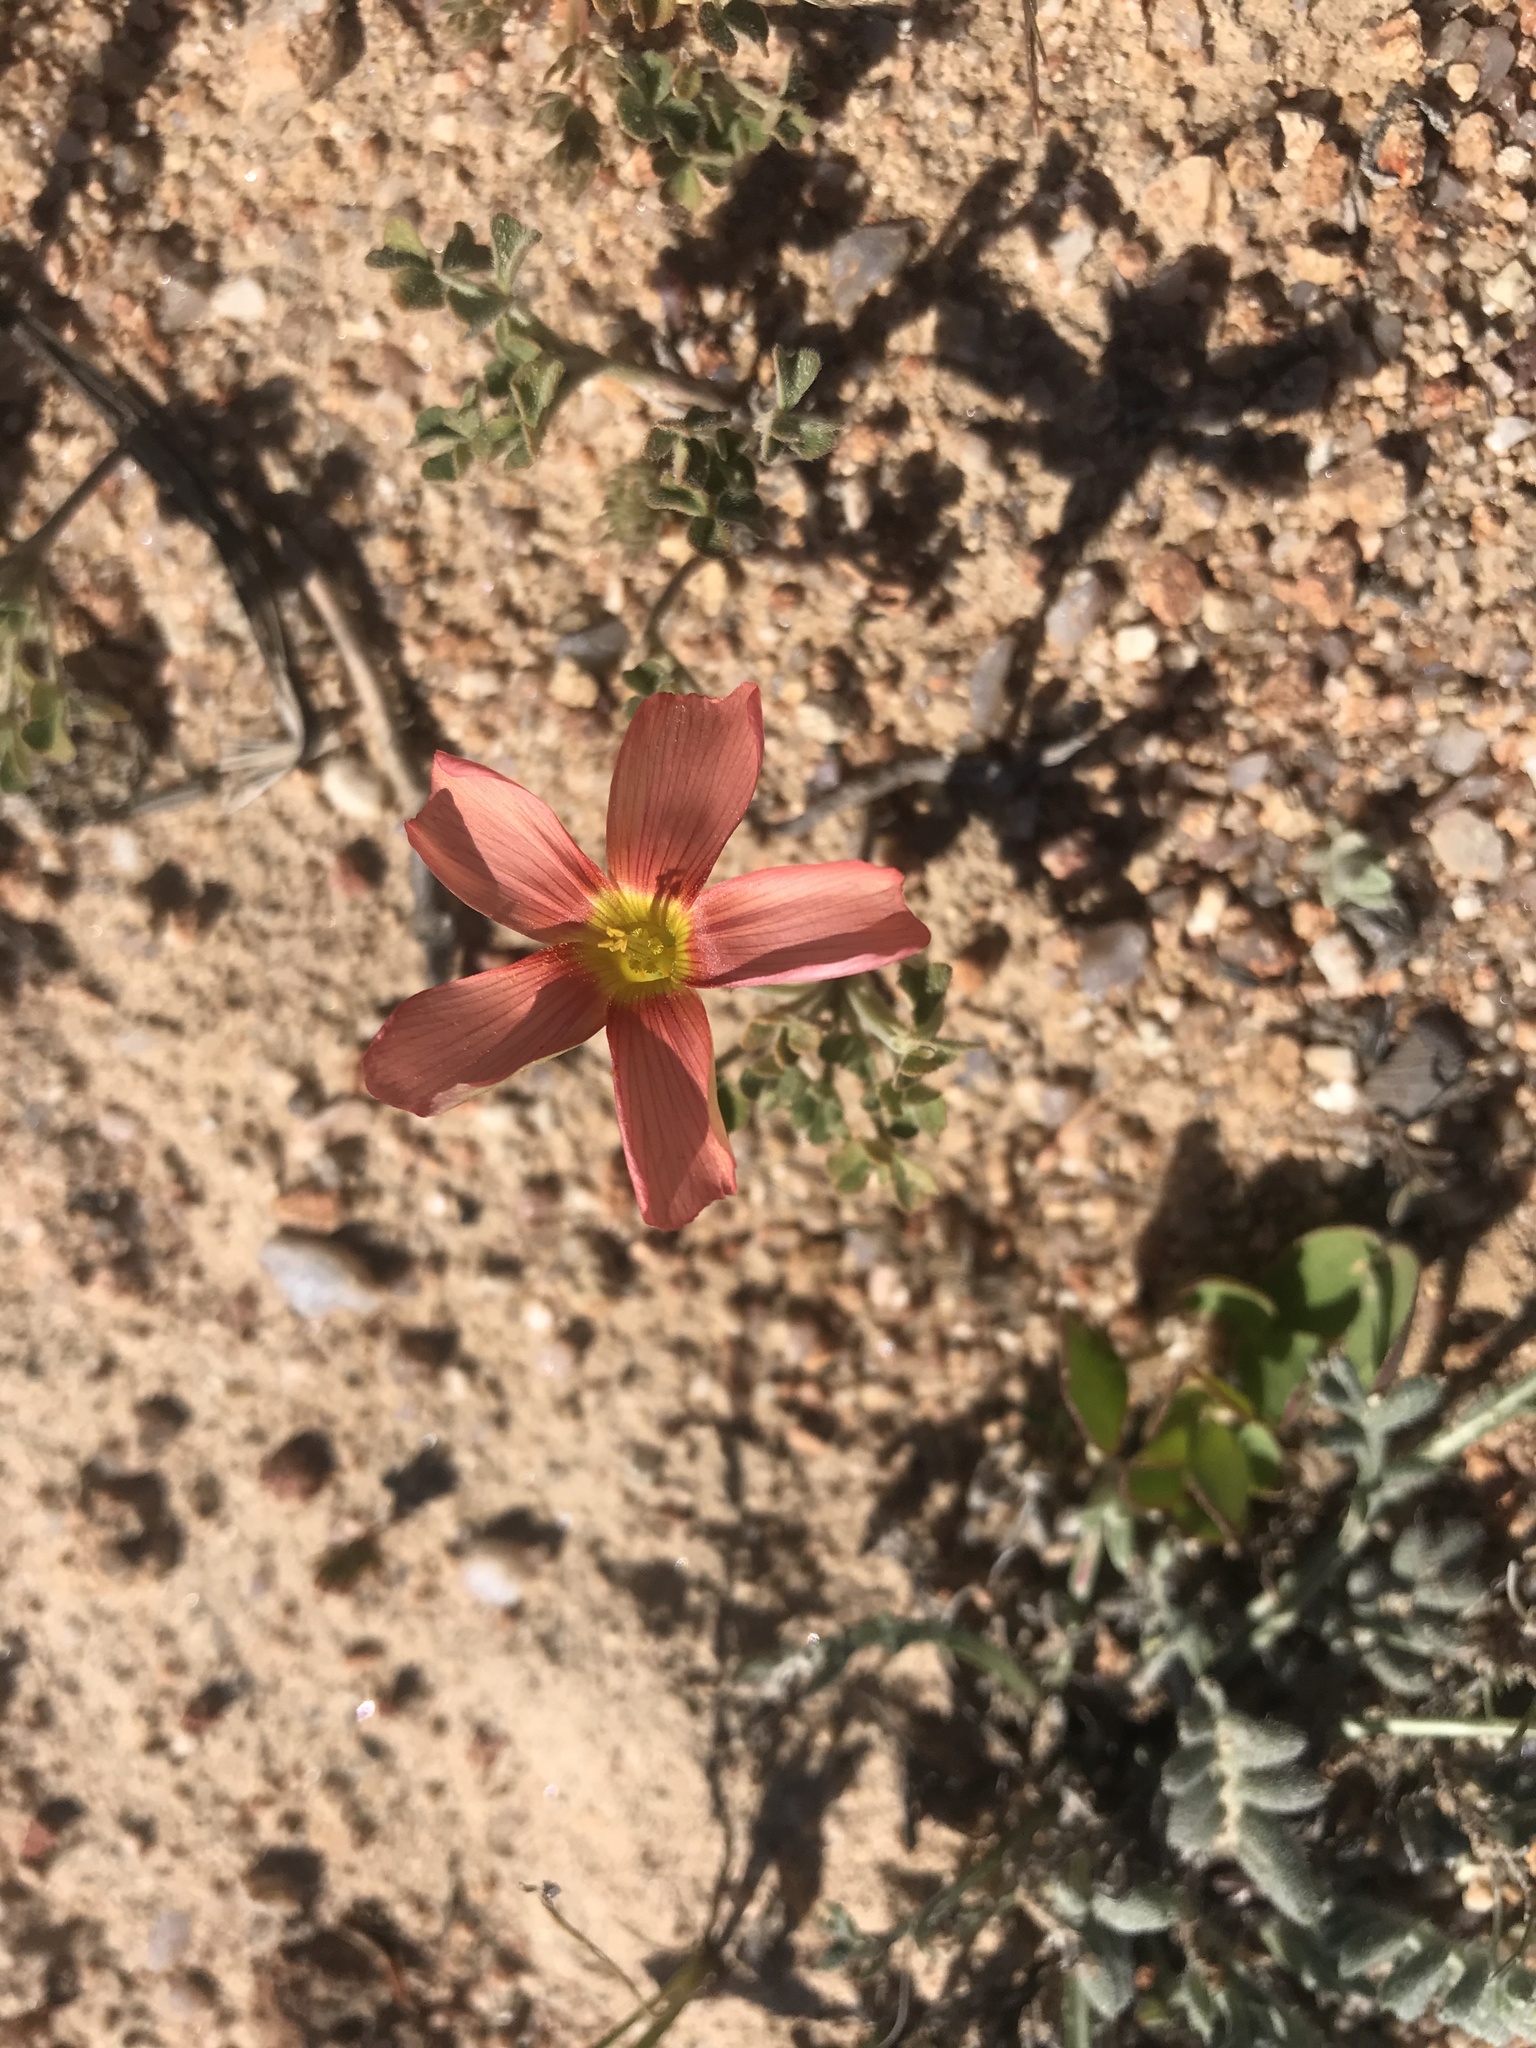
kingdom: Plantae
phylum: Tracheophyta
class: Magnoliopsida
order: Oxalidales
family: Oxalidaceae
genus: Oxalis
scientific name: Oxalis obtusa
